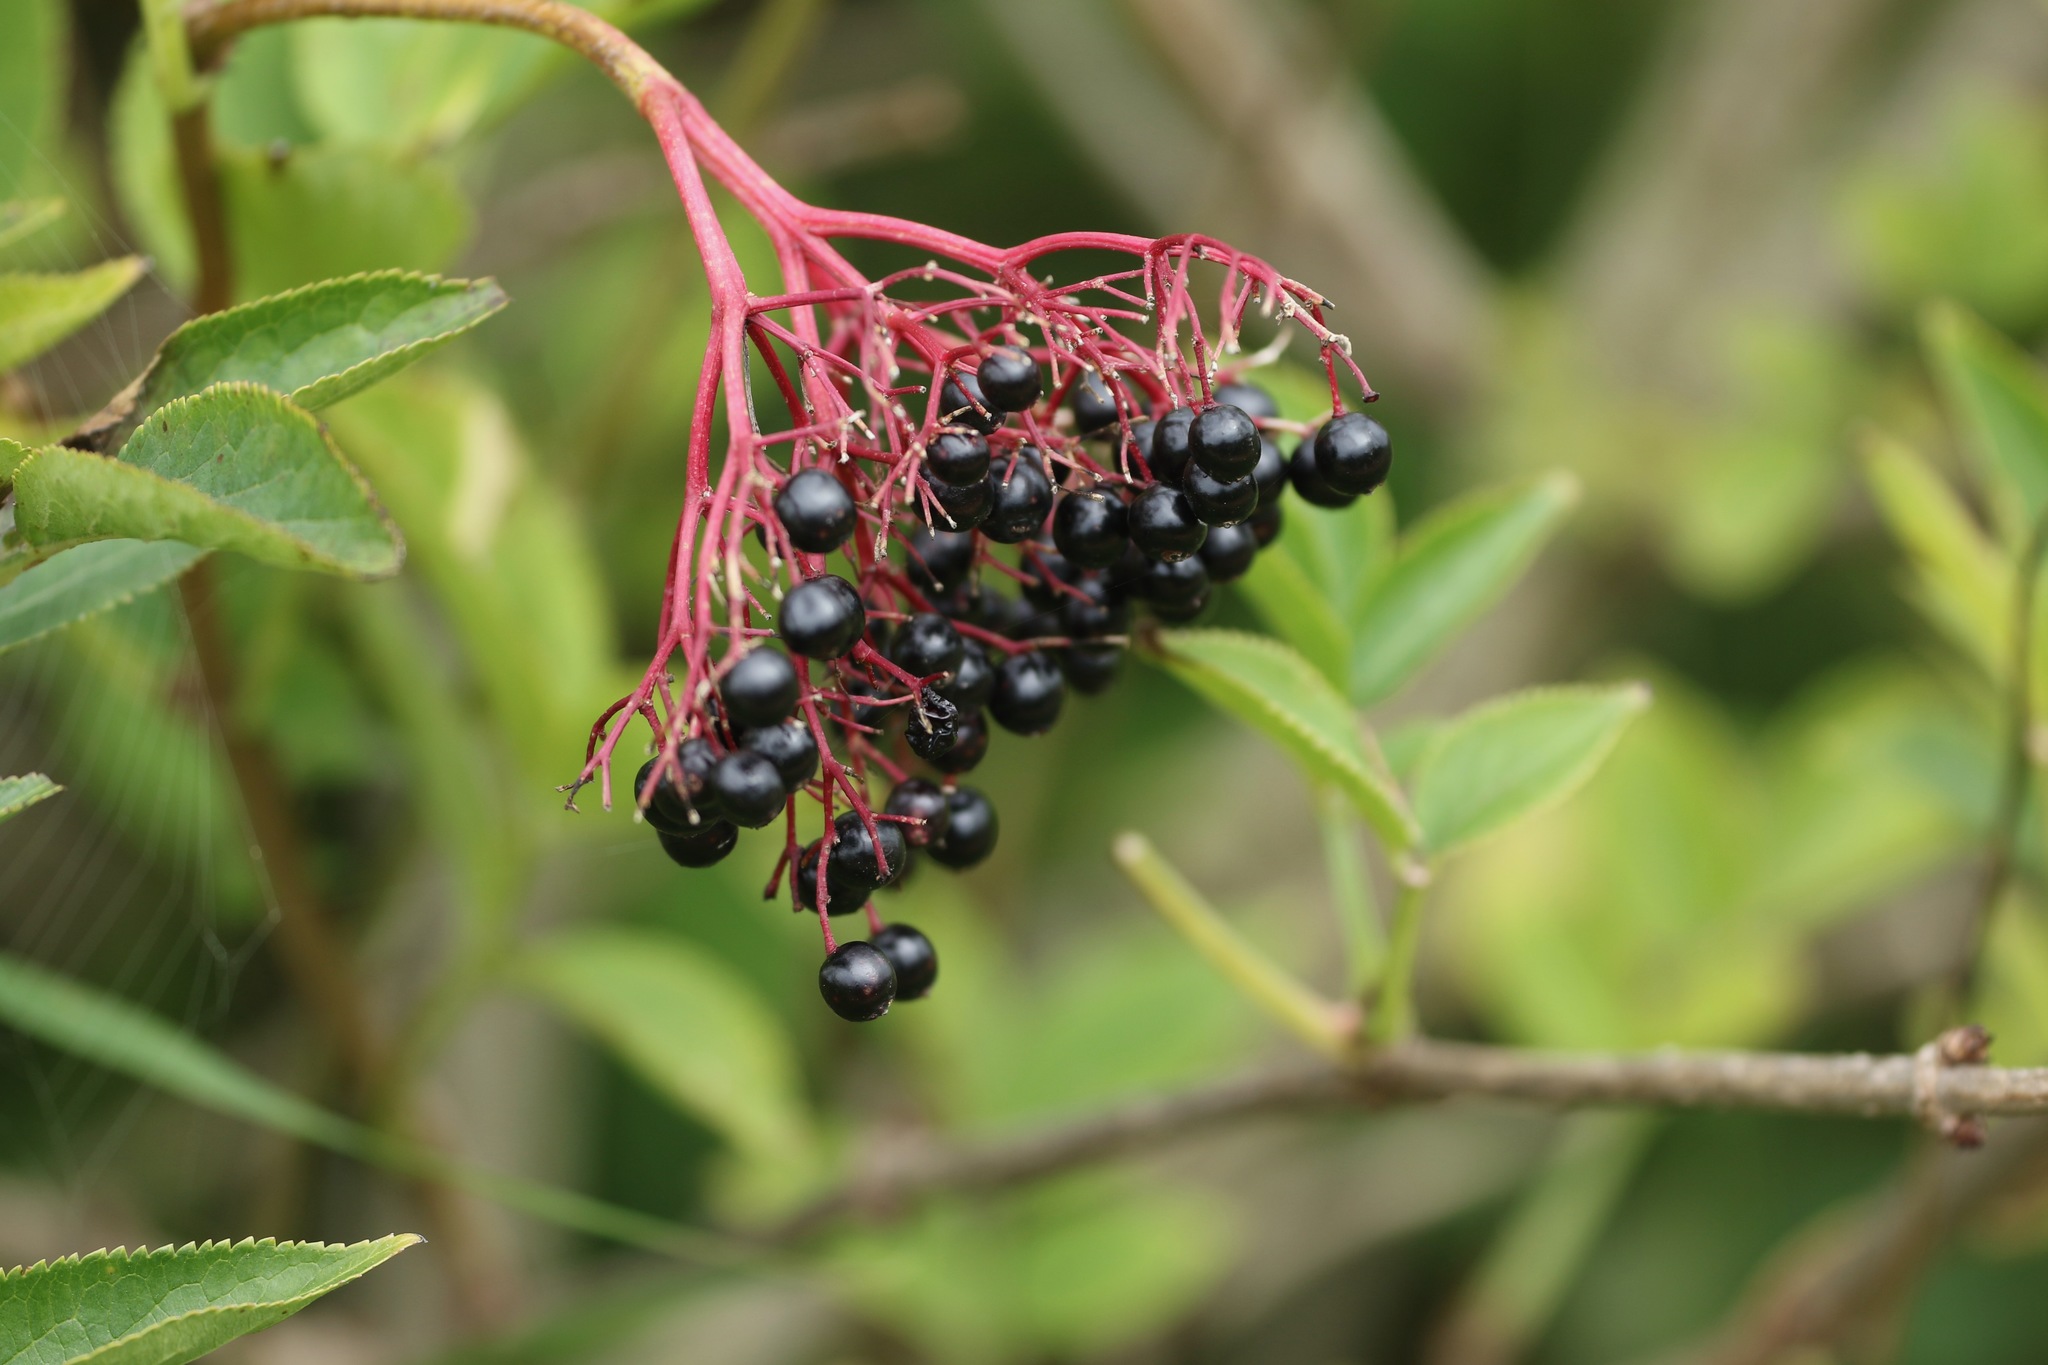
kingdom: Plantae
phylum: Tracheophyta
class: Magnoliopsida
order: Dipsacales
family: Viburnaceae
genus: Sambucus
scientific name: Sambucus nigra
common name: Elder
